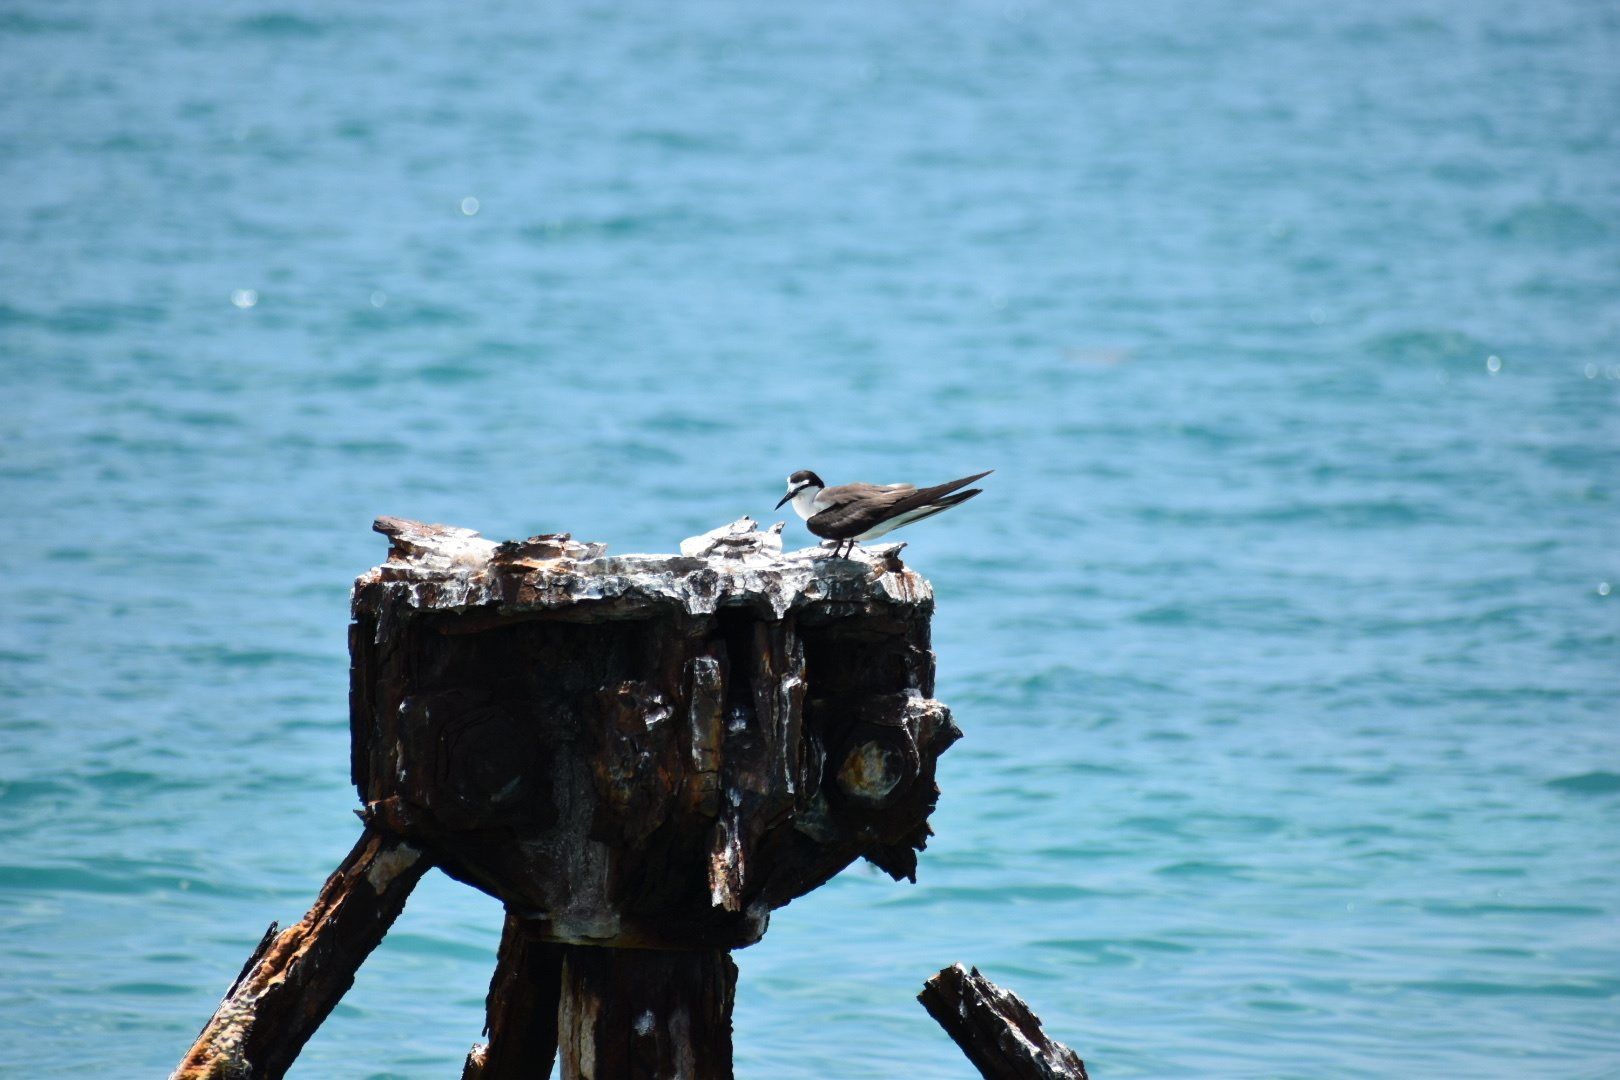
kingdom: Animalia
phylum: Chordata
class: Aves
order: Charadriiformes
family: Laridae
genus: Onychoprion
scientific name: Onychoprion anaethetus
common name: Bridled tern
